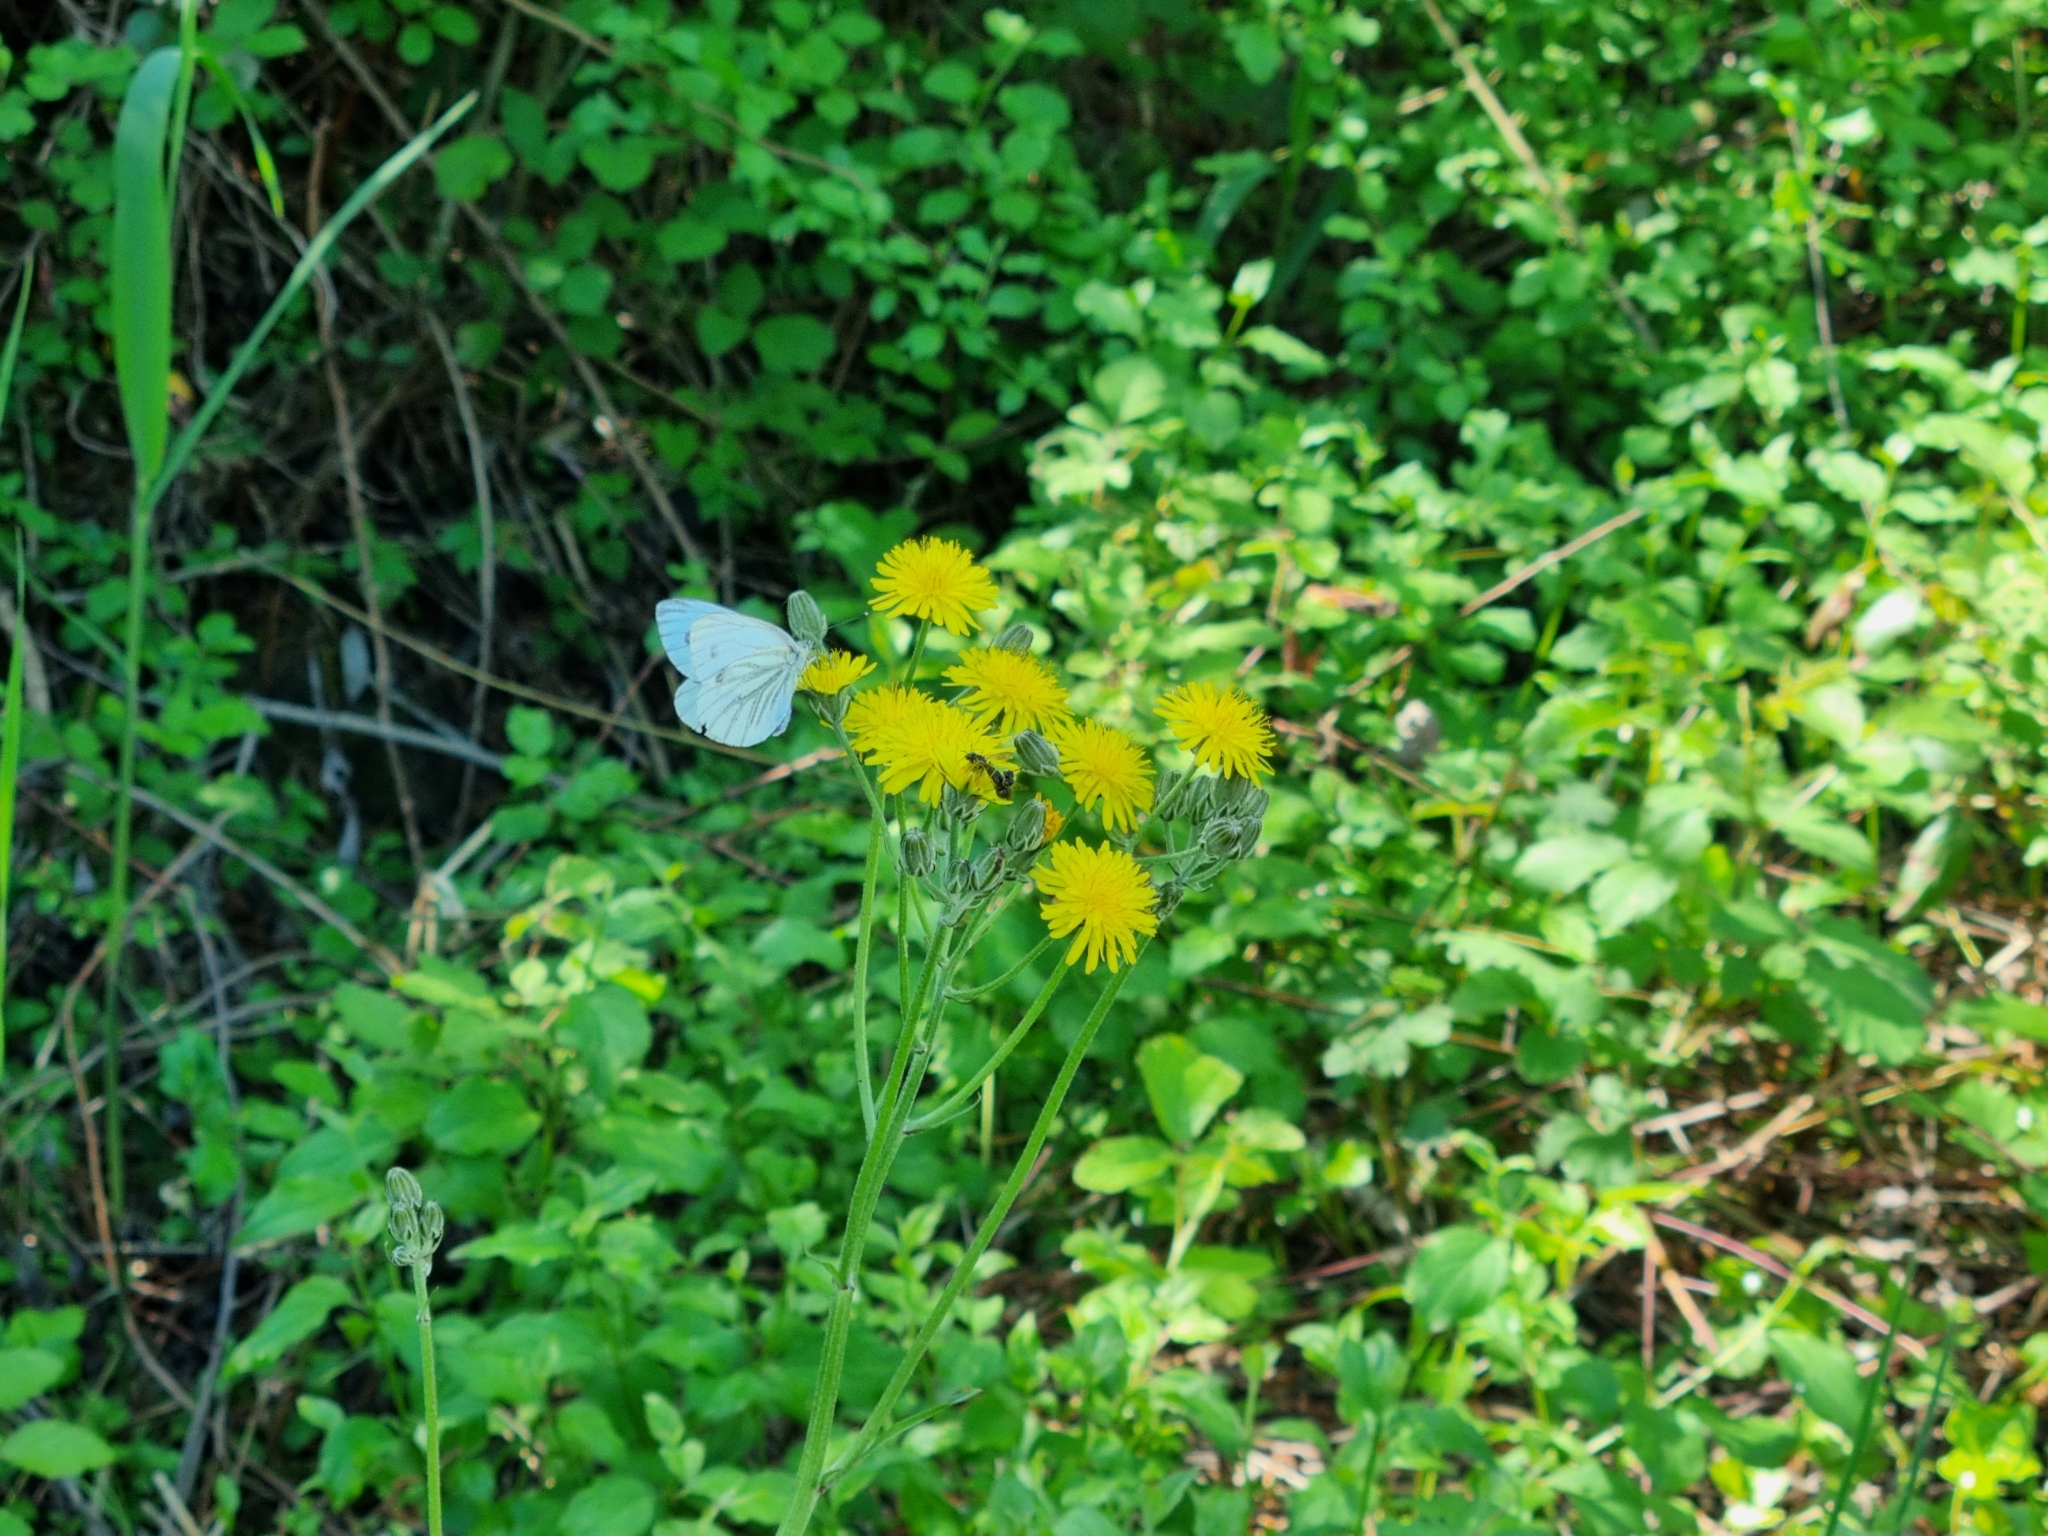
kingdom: Animalia
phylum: Arthropoda
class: Insecta
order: Lepidoptera
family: Pieridae
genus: Pieris
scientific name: Pieris napi
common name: Green-veined white
